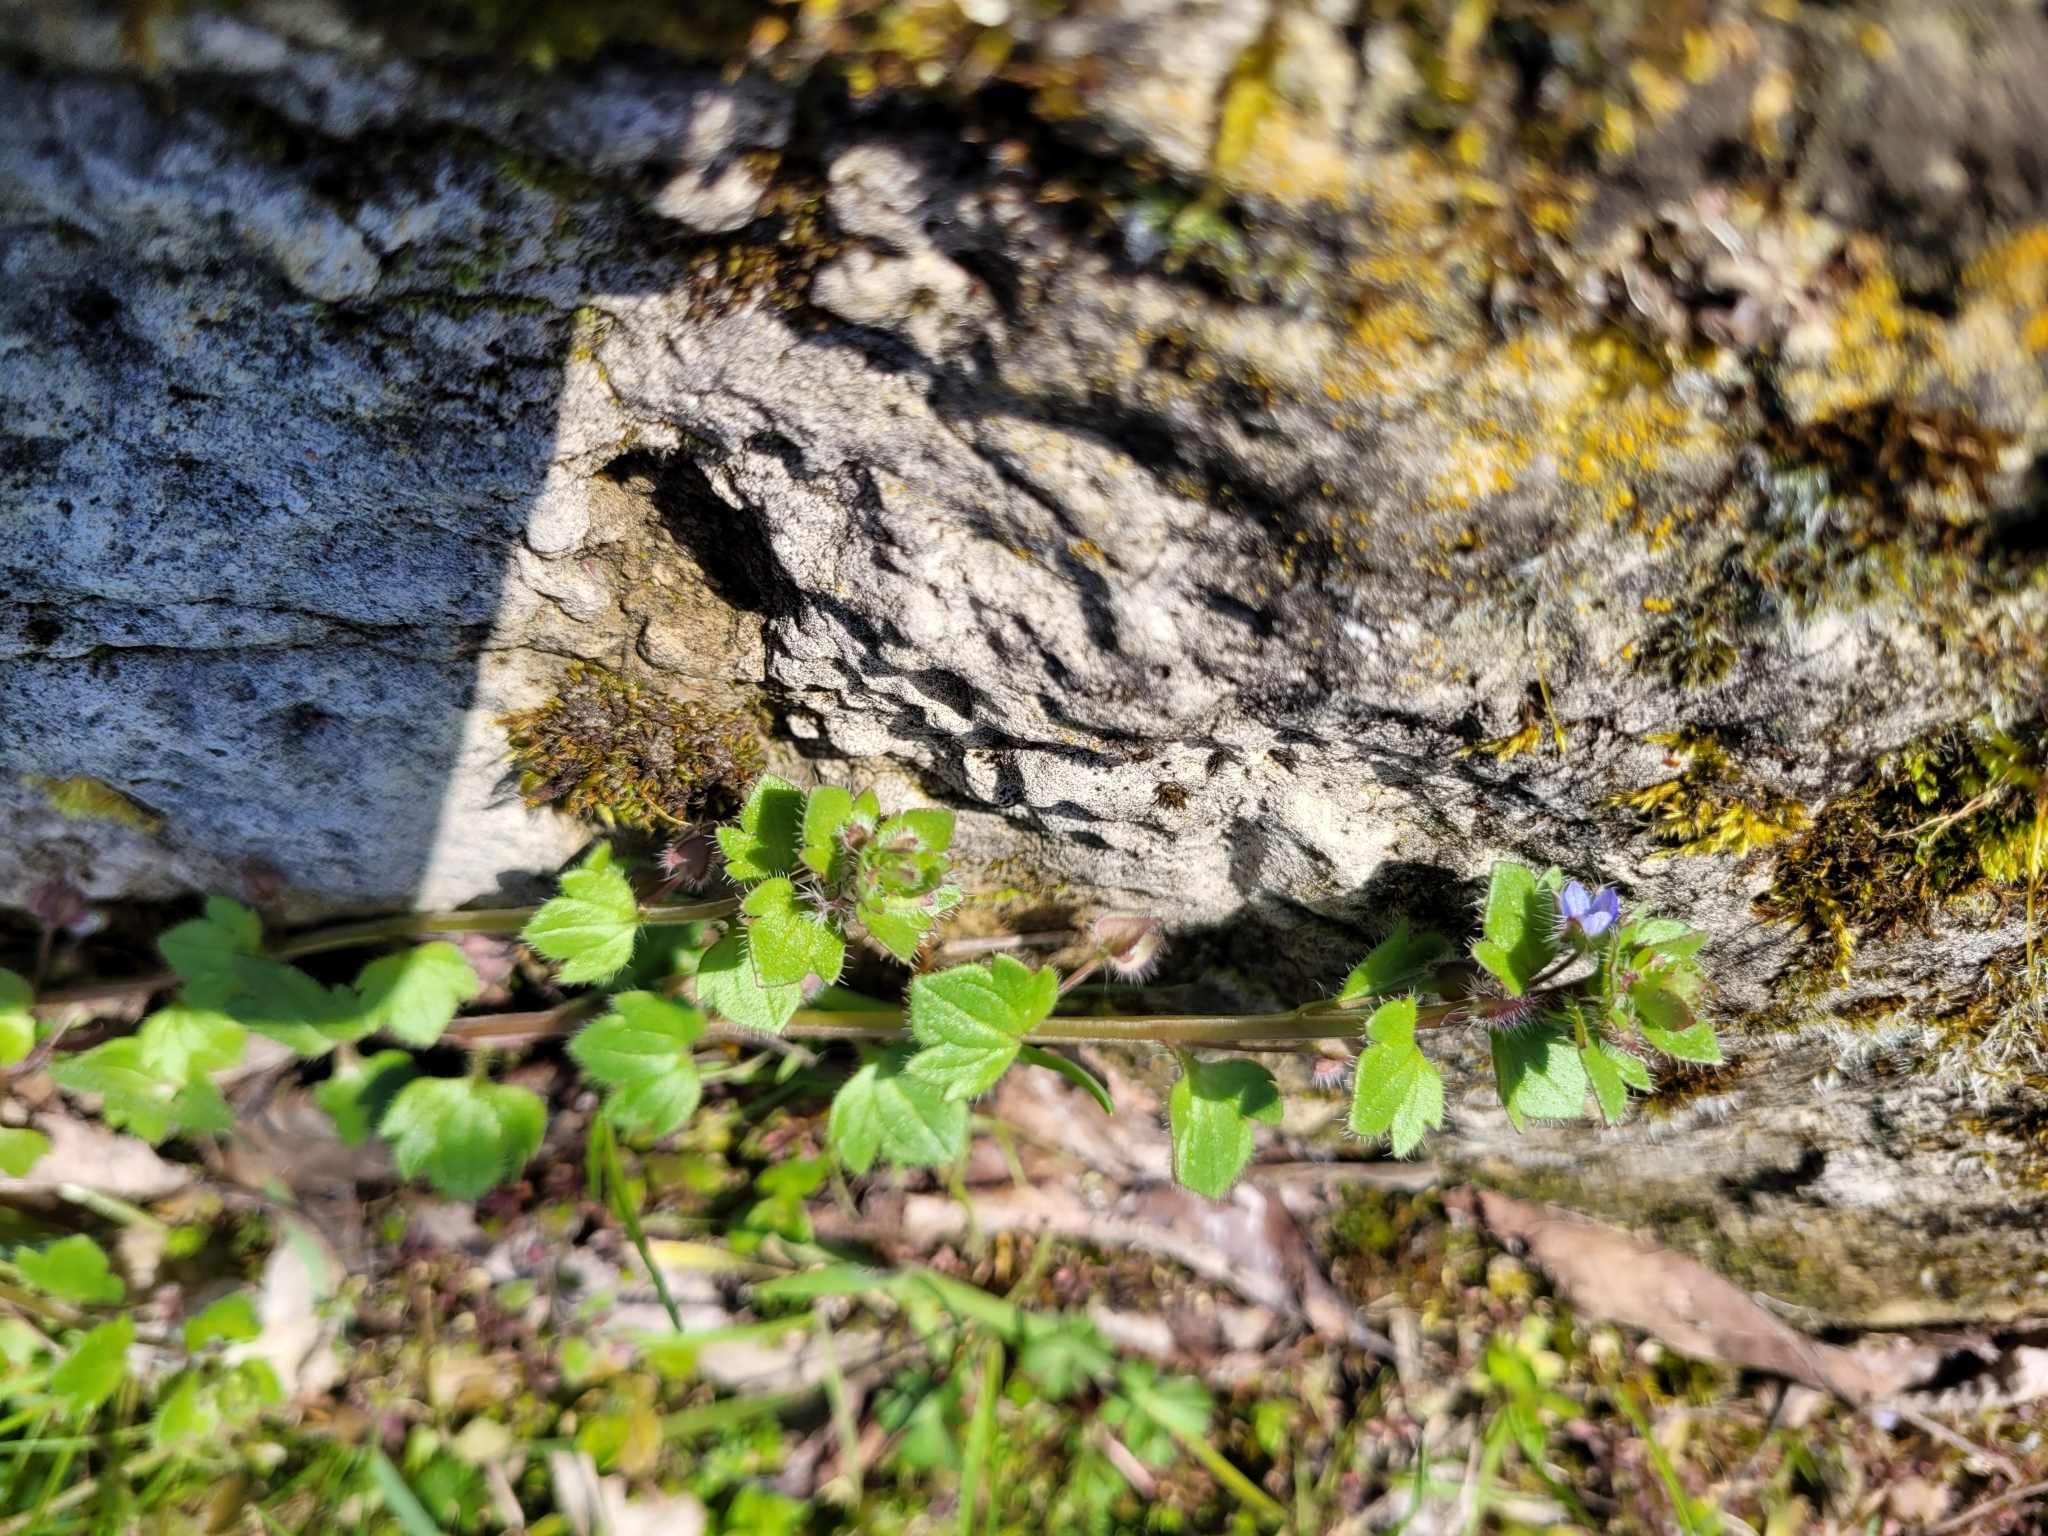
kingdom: Plantae
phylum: Tracheophyta
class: Magnoliopsida
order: Lamiales
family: Plantaginaceae
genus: Veronica
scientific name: Veronica hederifolia
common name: Ivy-leaved speedwell
